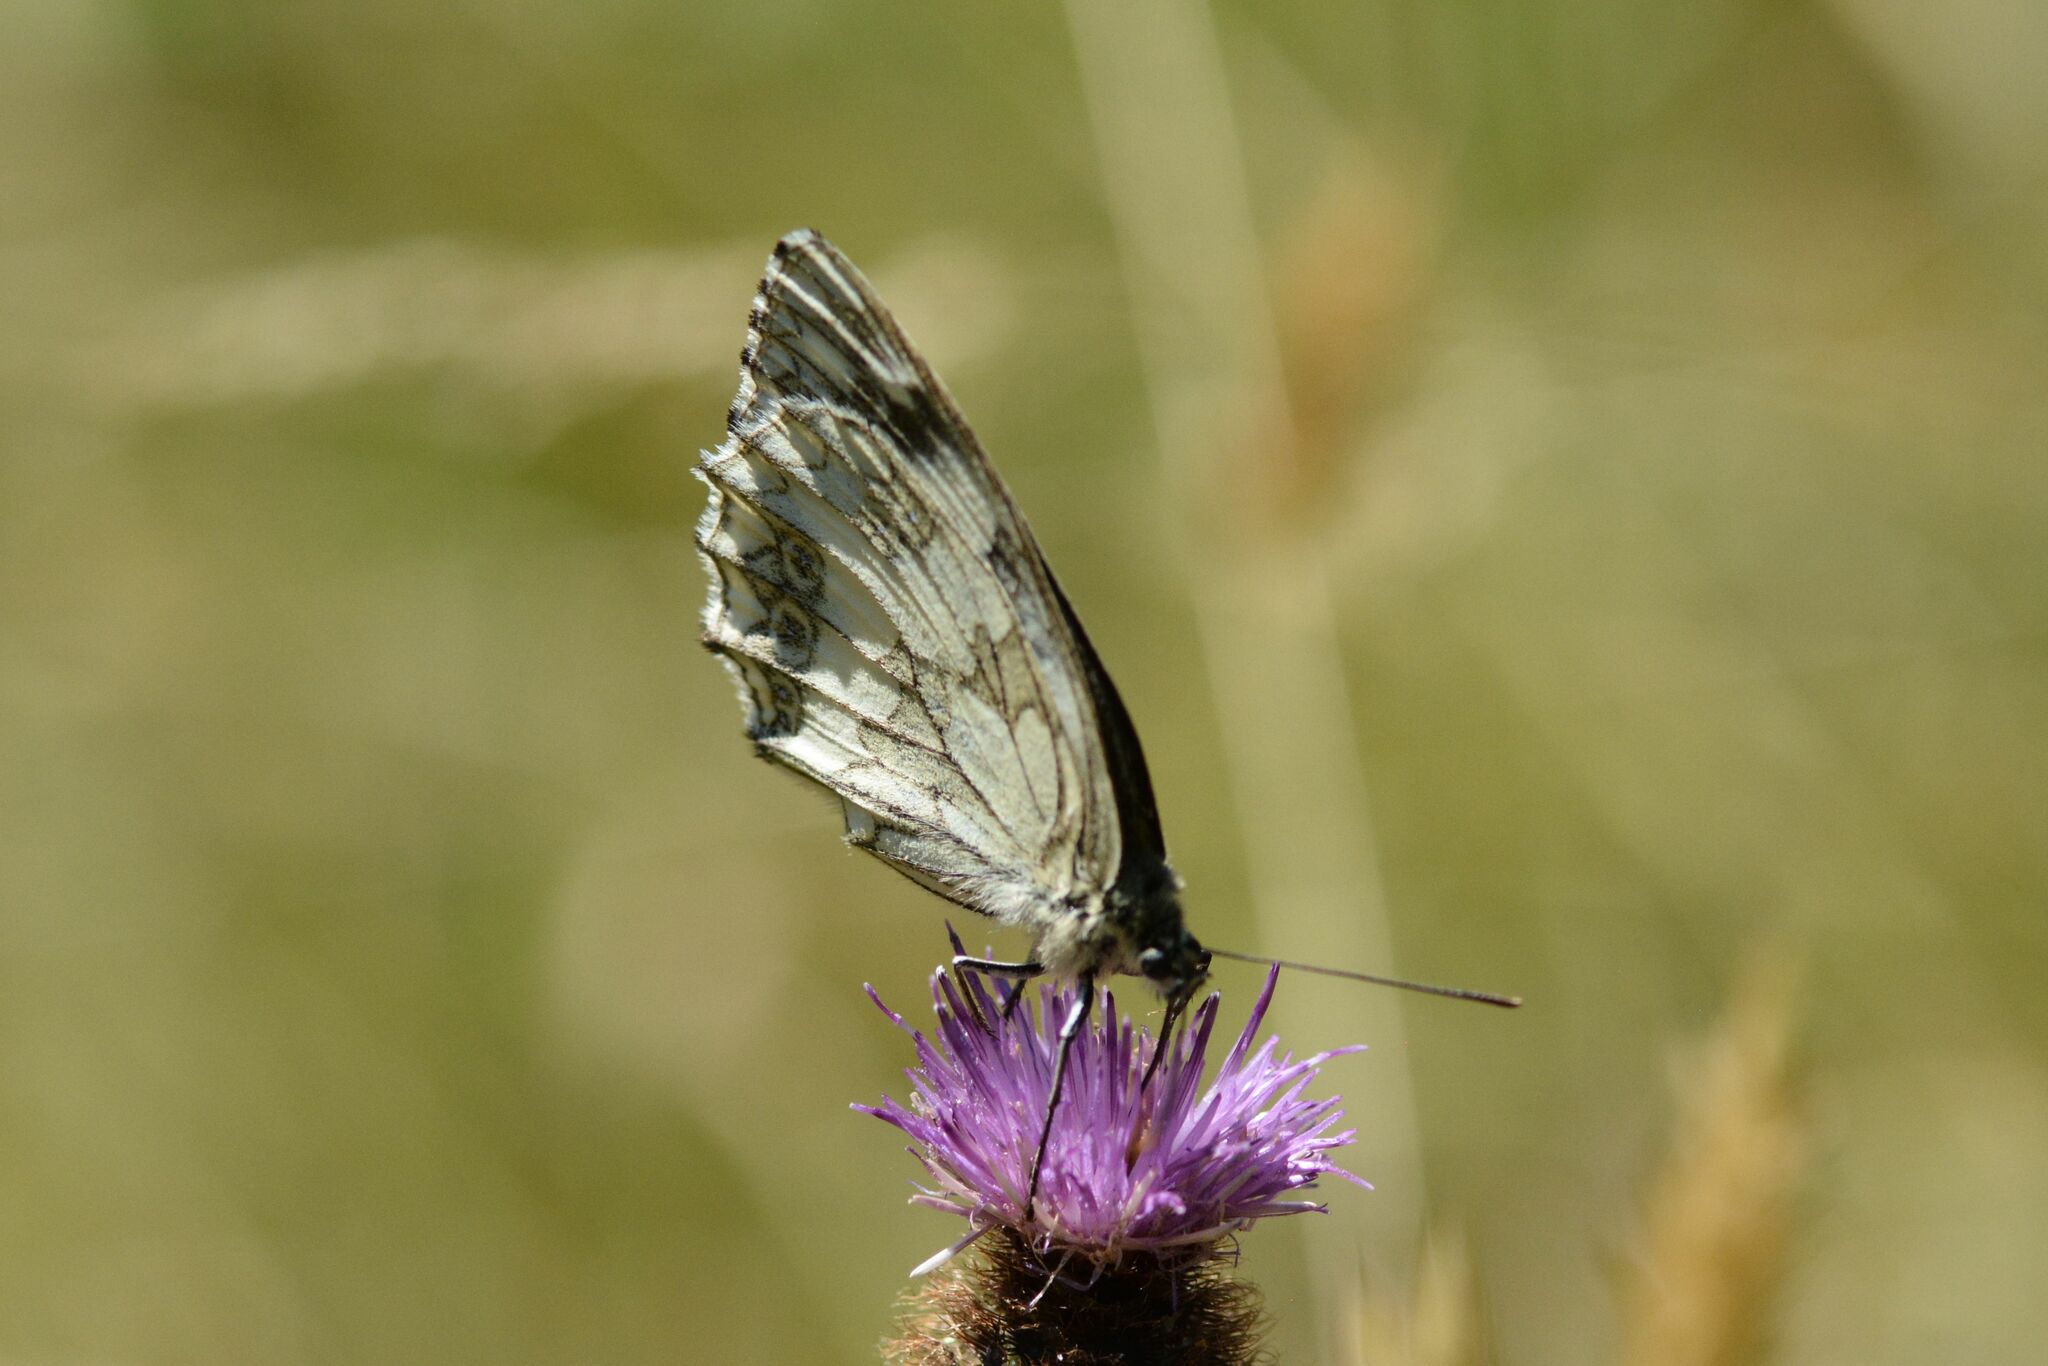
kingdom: Animalia
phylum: Arthropoda
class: Insecta
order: Lepidoptera
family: Nymphalidae
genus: Melanargia
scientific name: Melanargia galathea
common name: Marbled white
